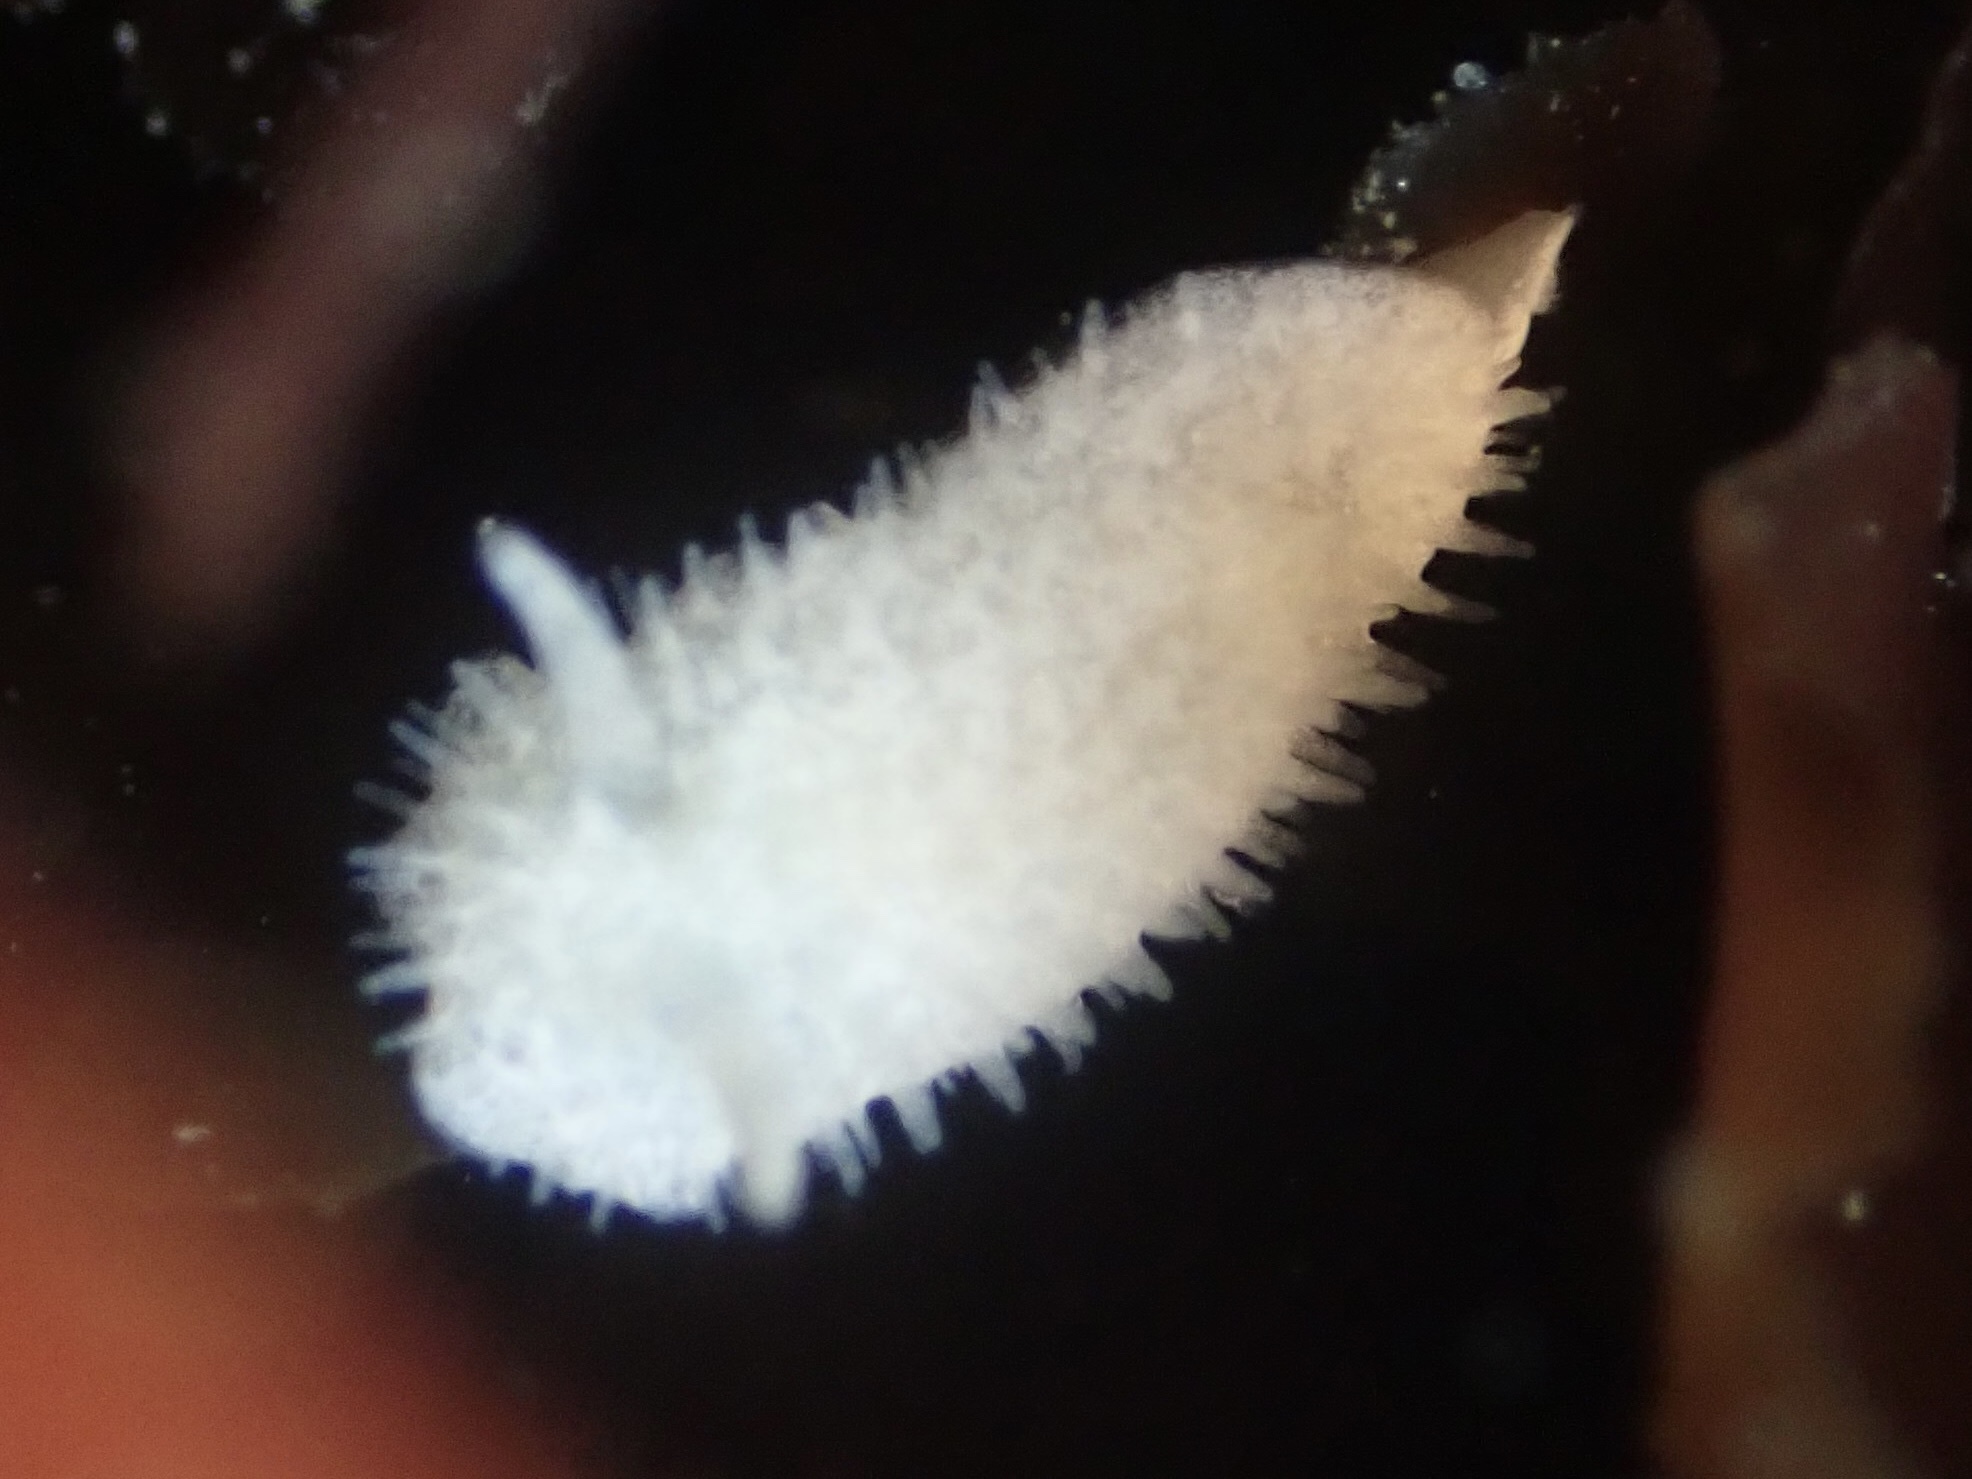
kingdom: Animalia
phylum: Mollusca
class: Gastropoda
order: Nudibranchia
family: Calycidorididae
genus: Diaphorodoris
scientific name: Diaphorodoris lirulatocauda
